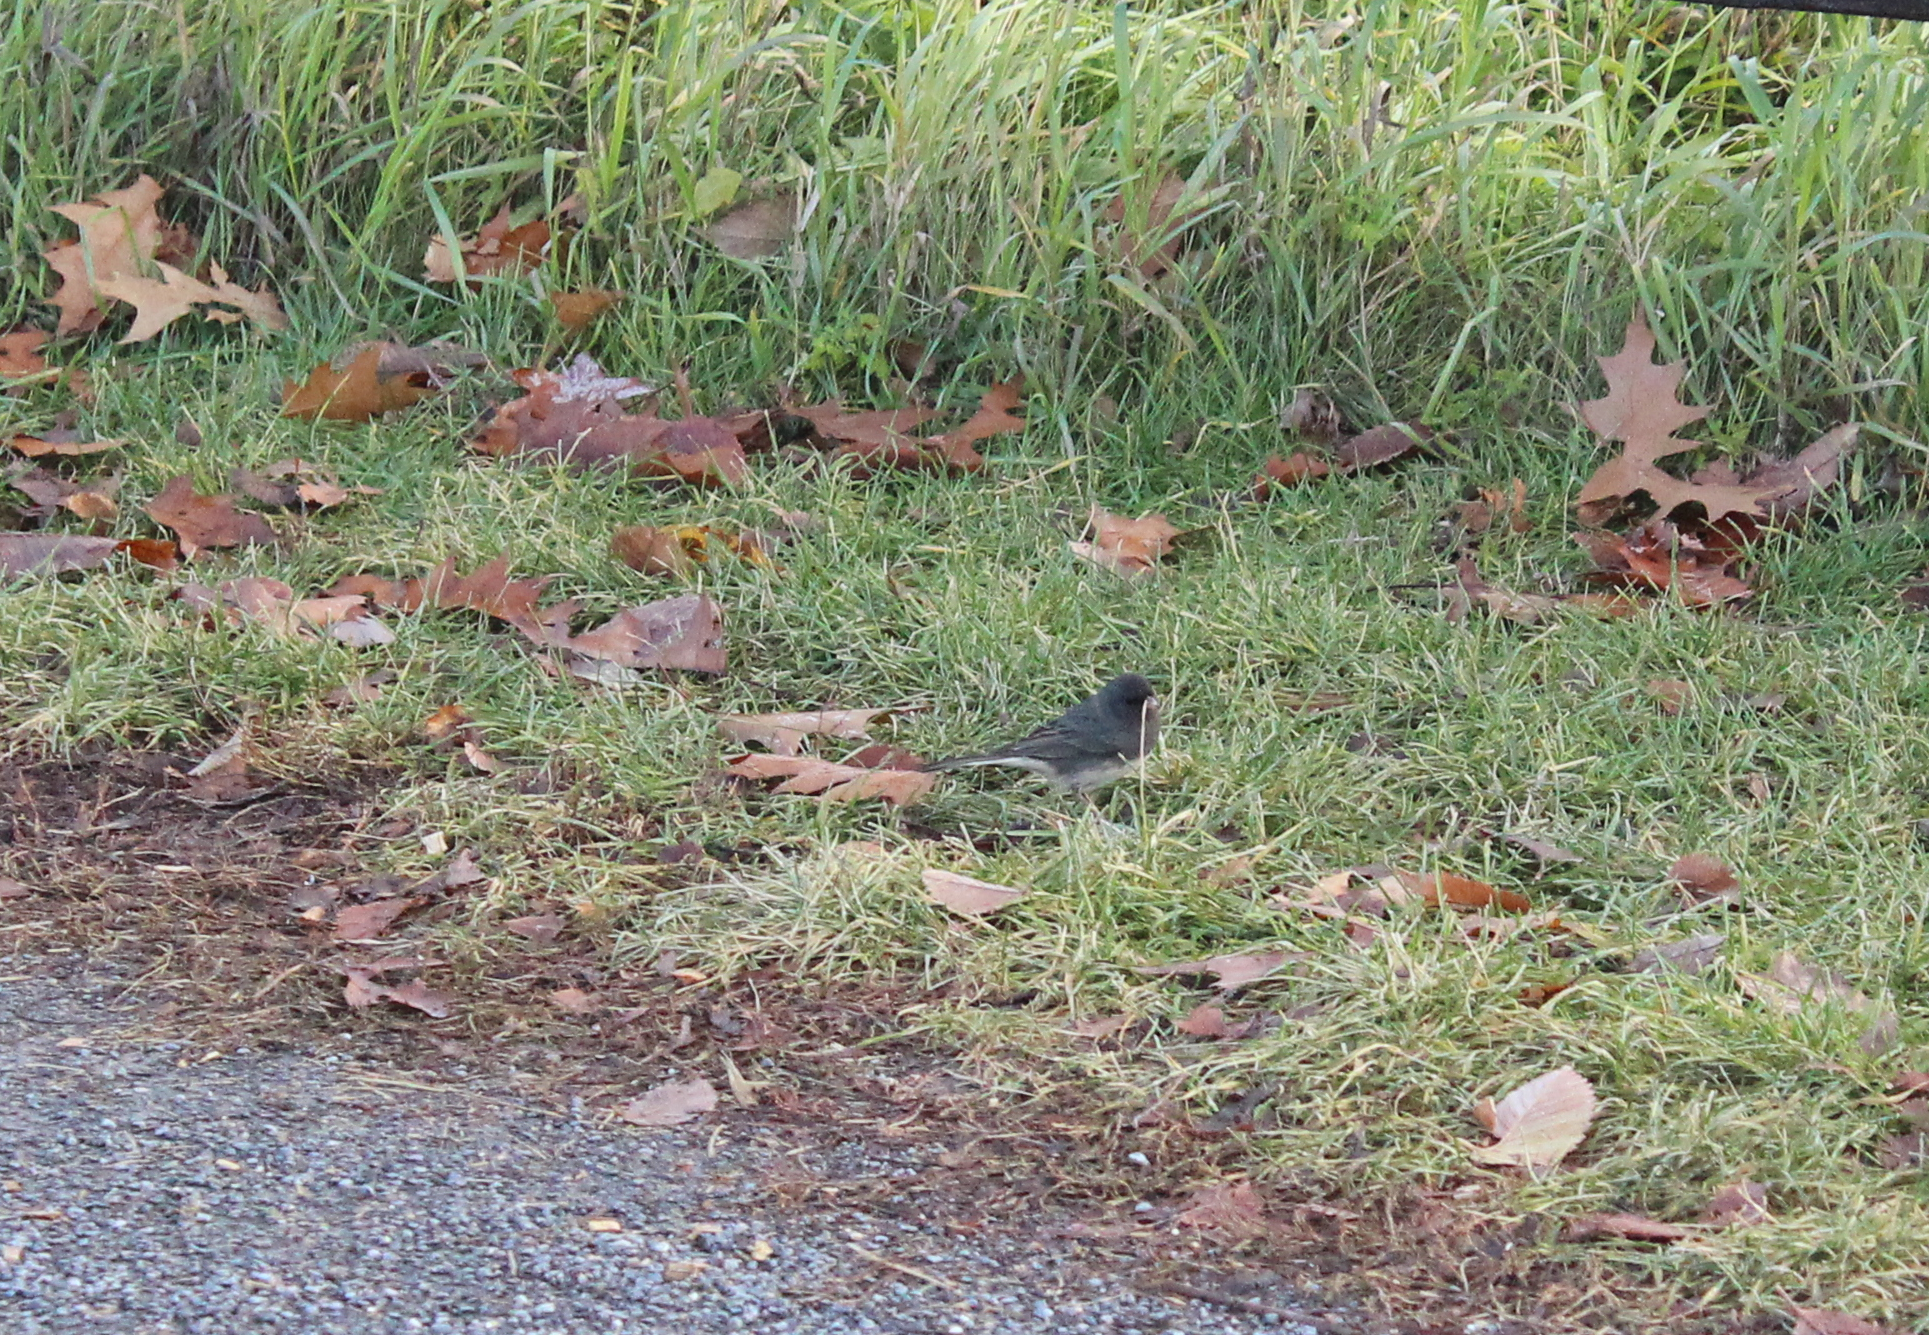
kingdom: Animalia
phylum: Chordata
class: Aves
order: Passeriformes
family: Passerellidae
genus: Junco
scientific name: Junco hyemalis
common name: Dark-eyed junco
